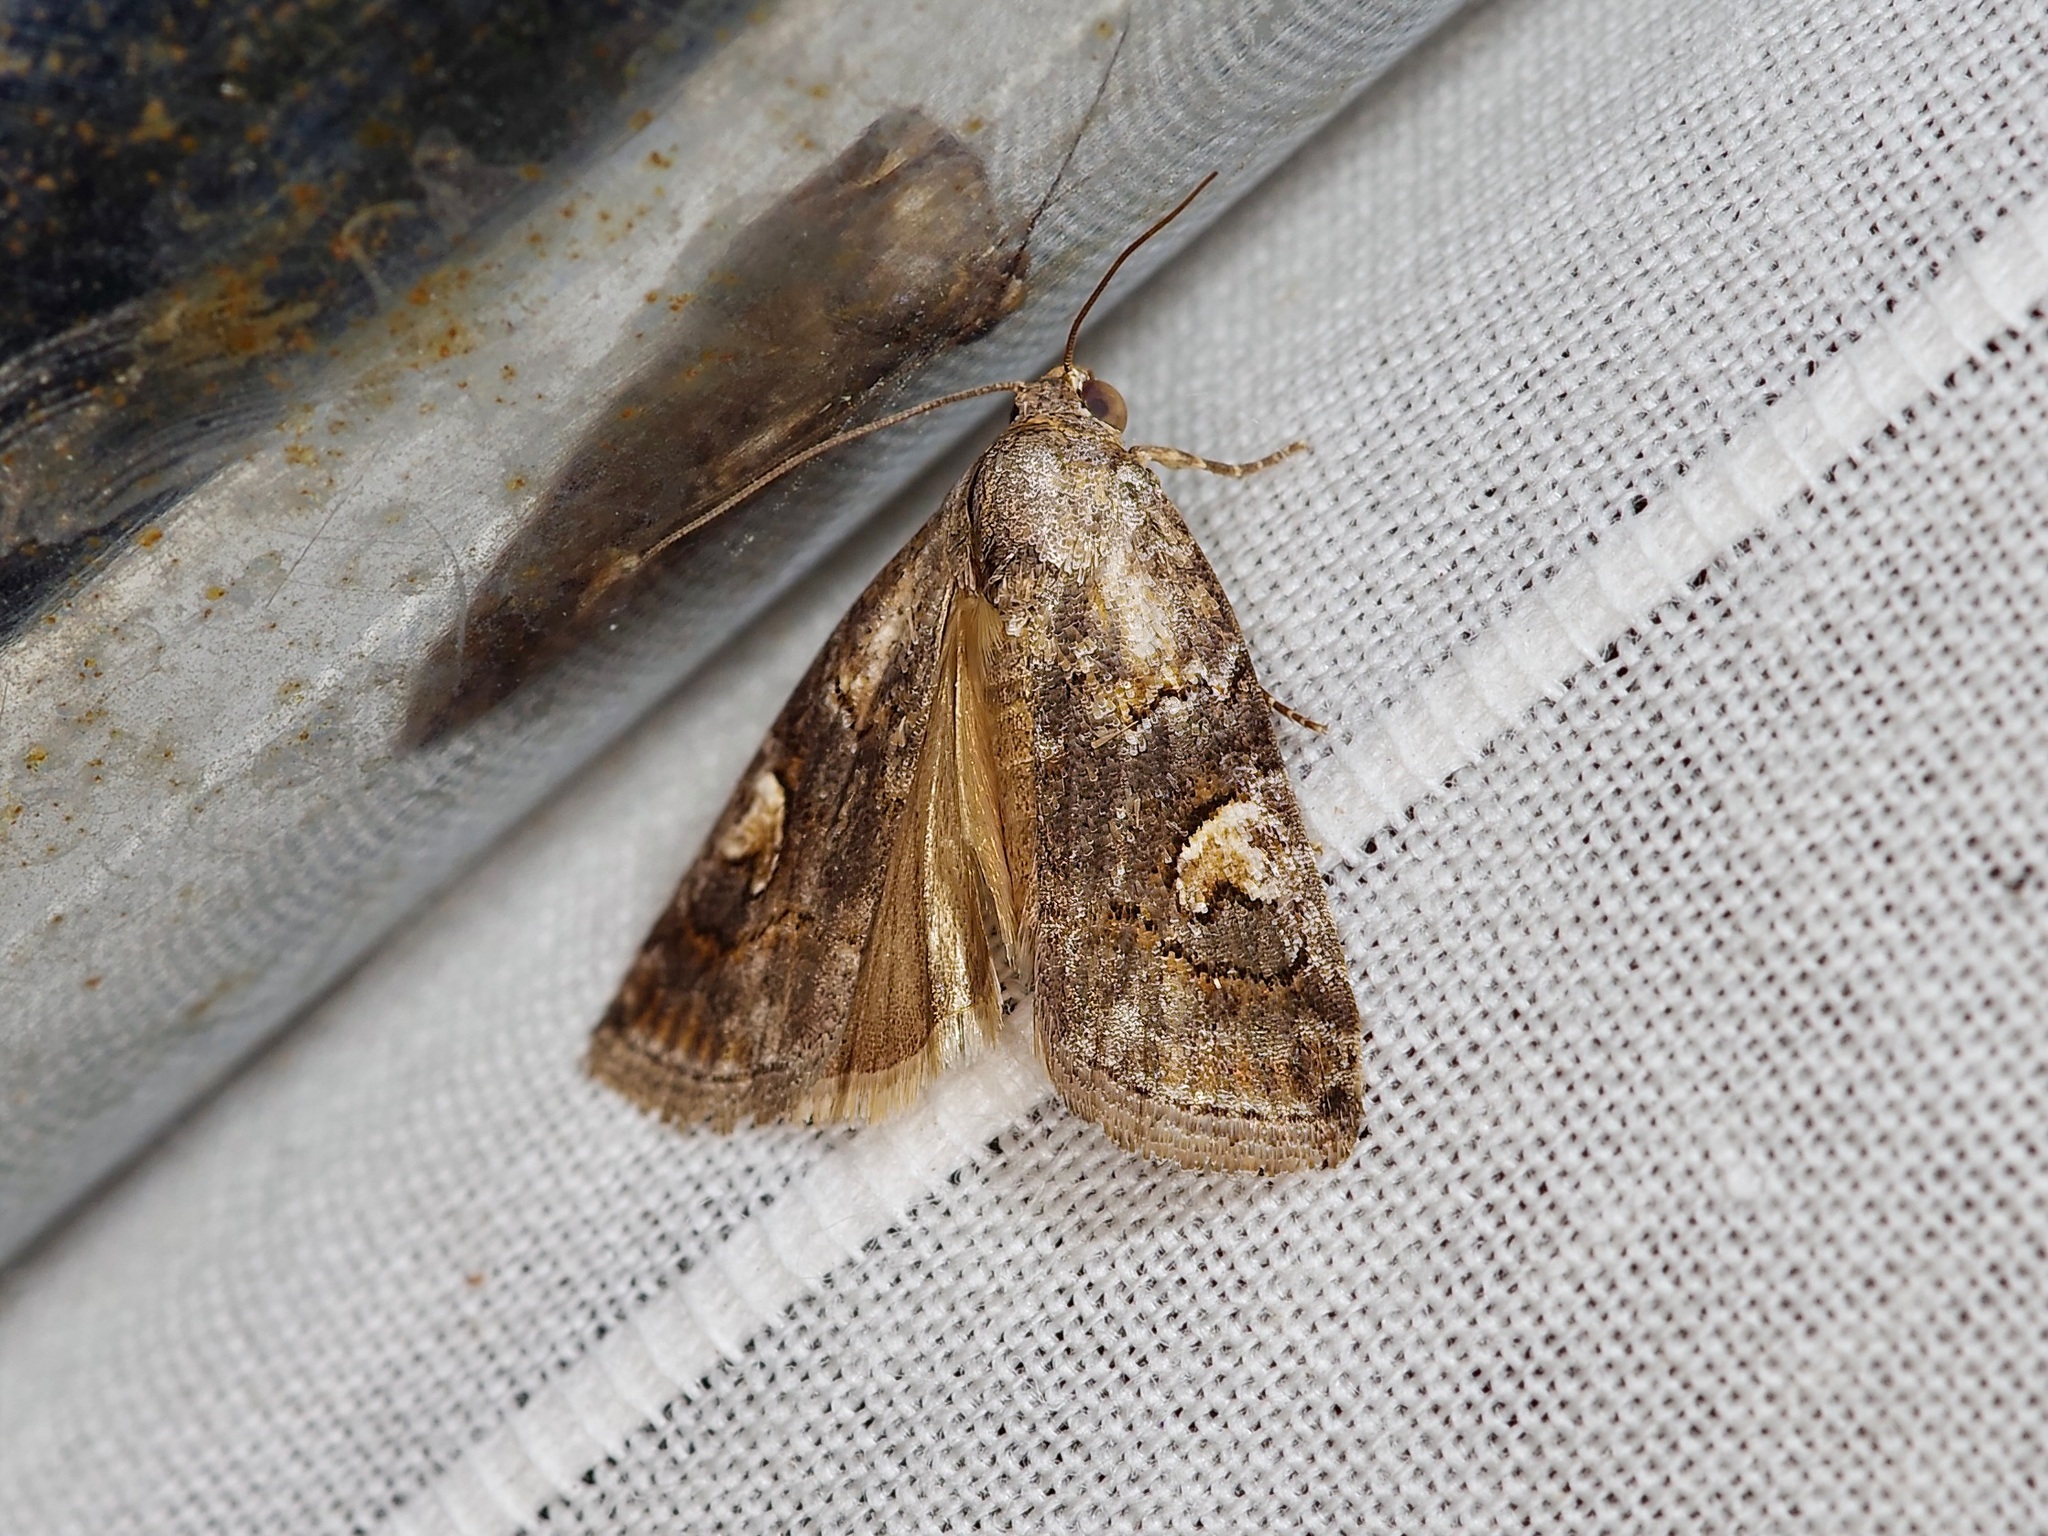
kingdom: Animalia
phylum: Arthropoda
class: Insecta
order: Lepidoptera
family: Noctuidae
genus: Metaponpneumata
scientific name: Metaponpneumata rogenhoferi
